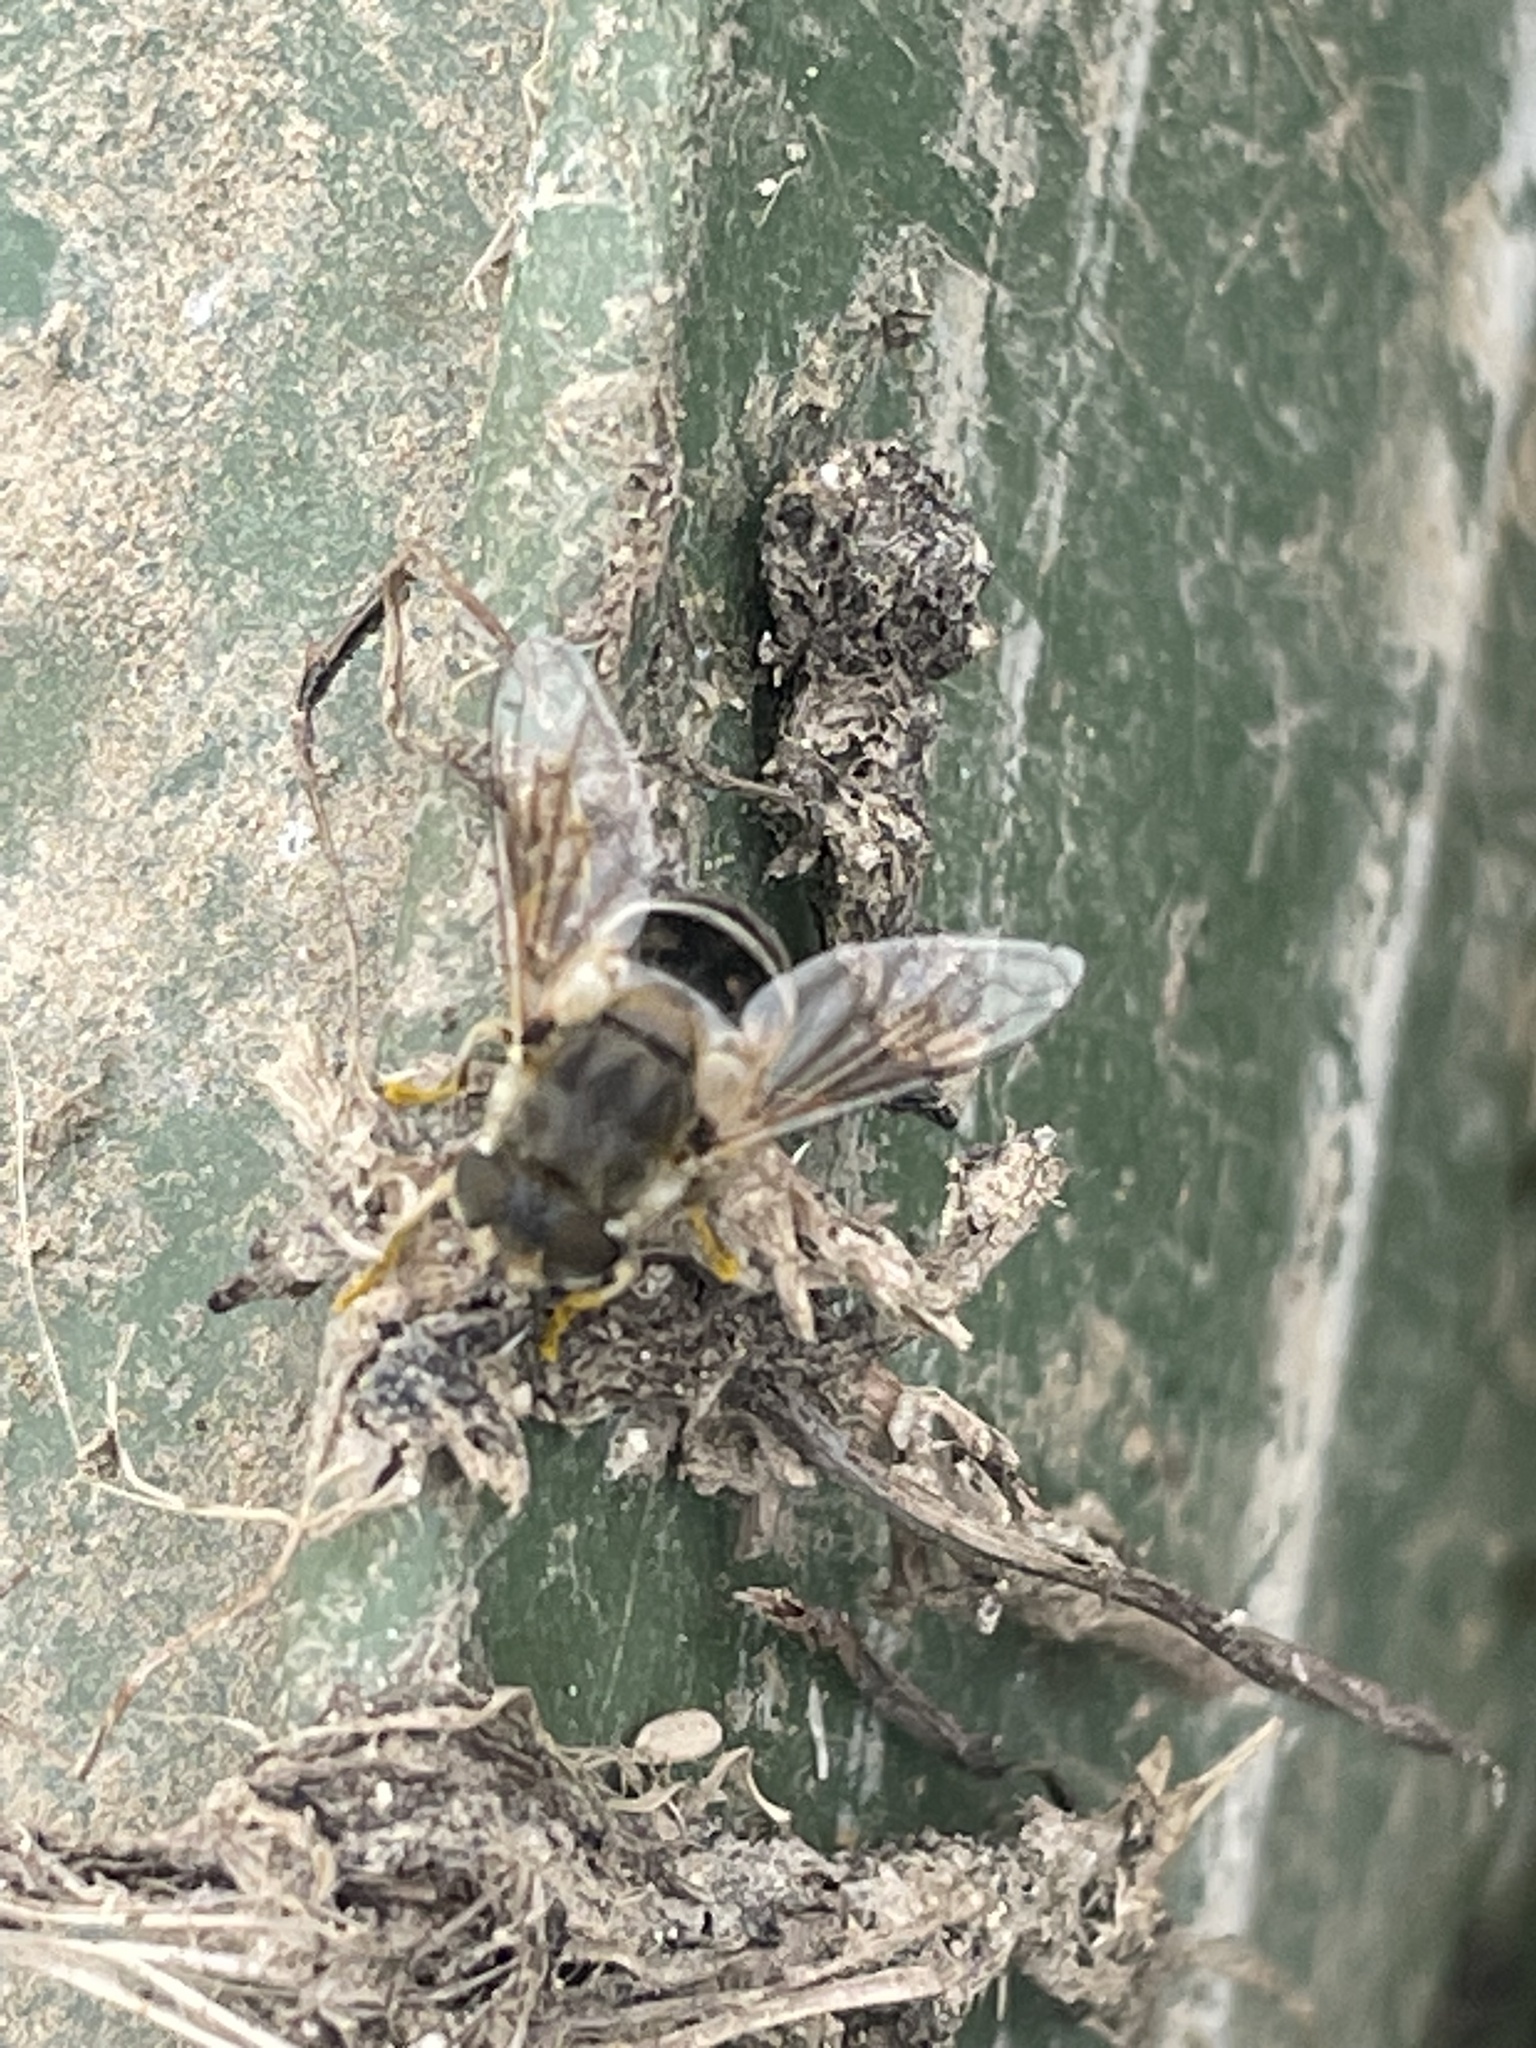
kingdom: Animalia
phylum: Arthropoda
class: Insecta
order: Diptera
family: Syrphidae
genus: Eoseristalis
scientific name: Eoseristalis
